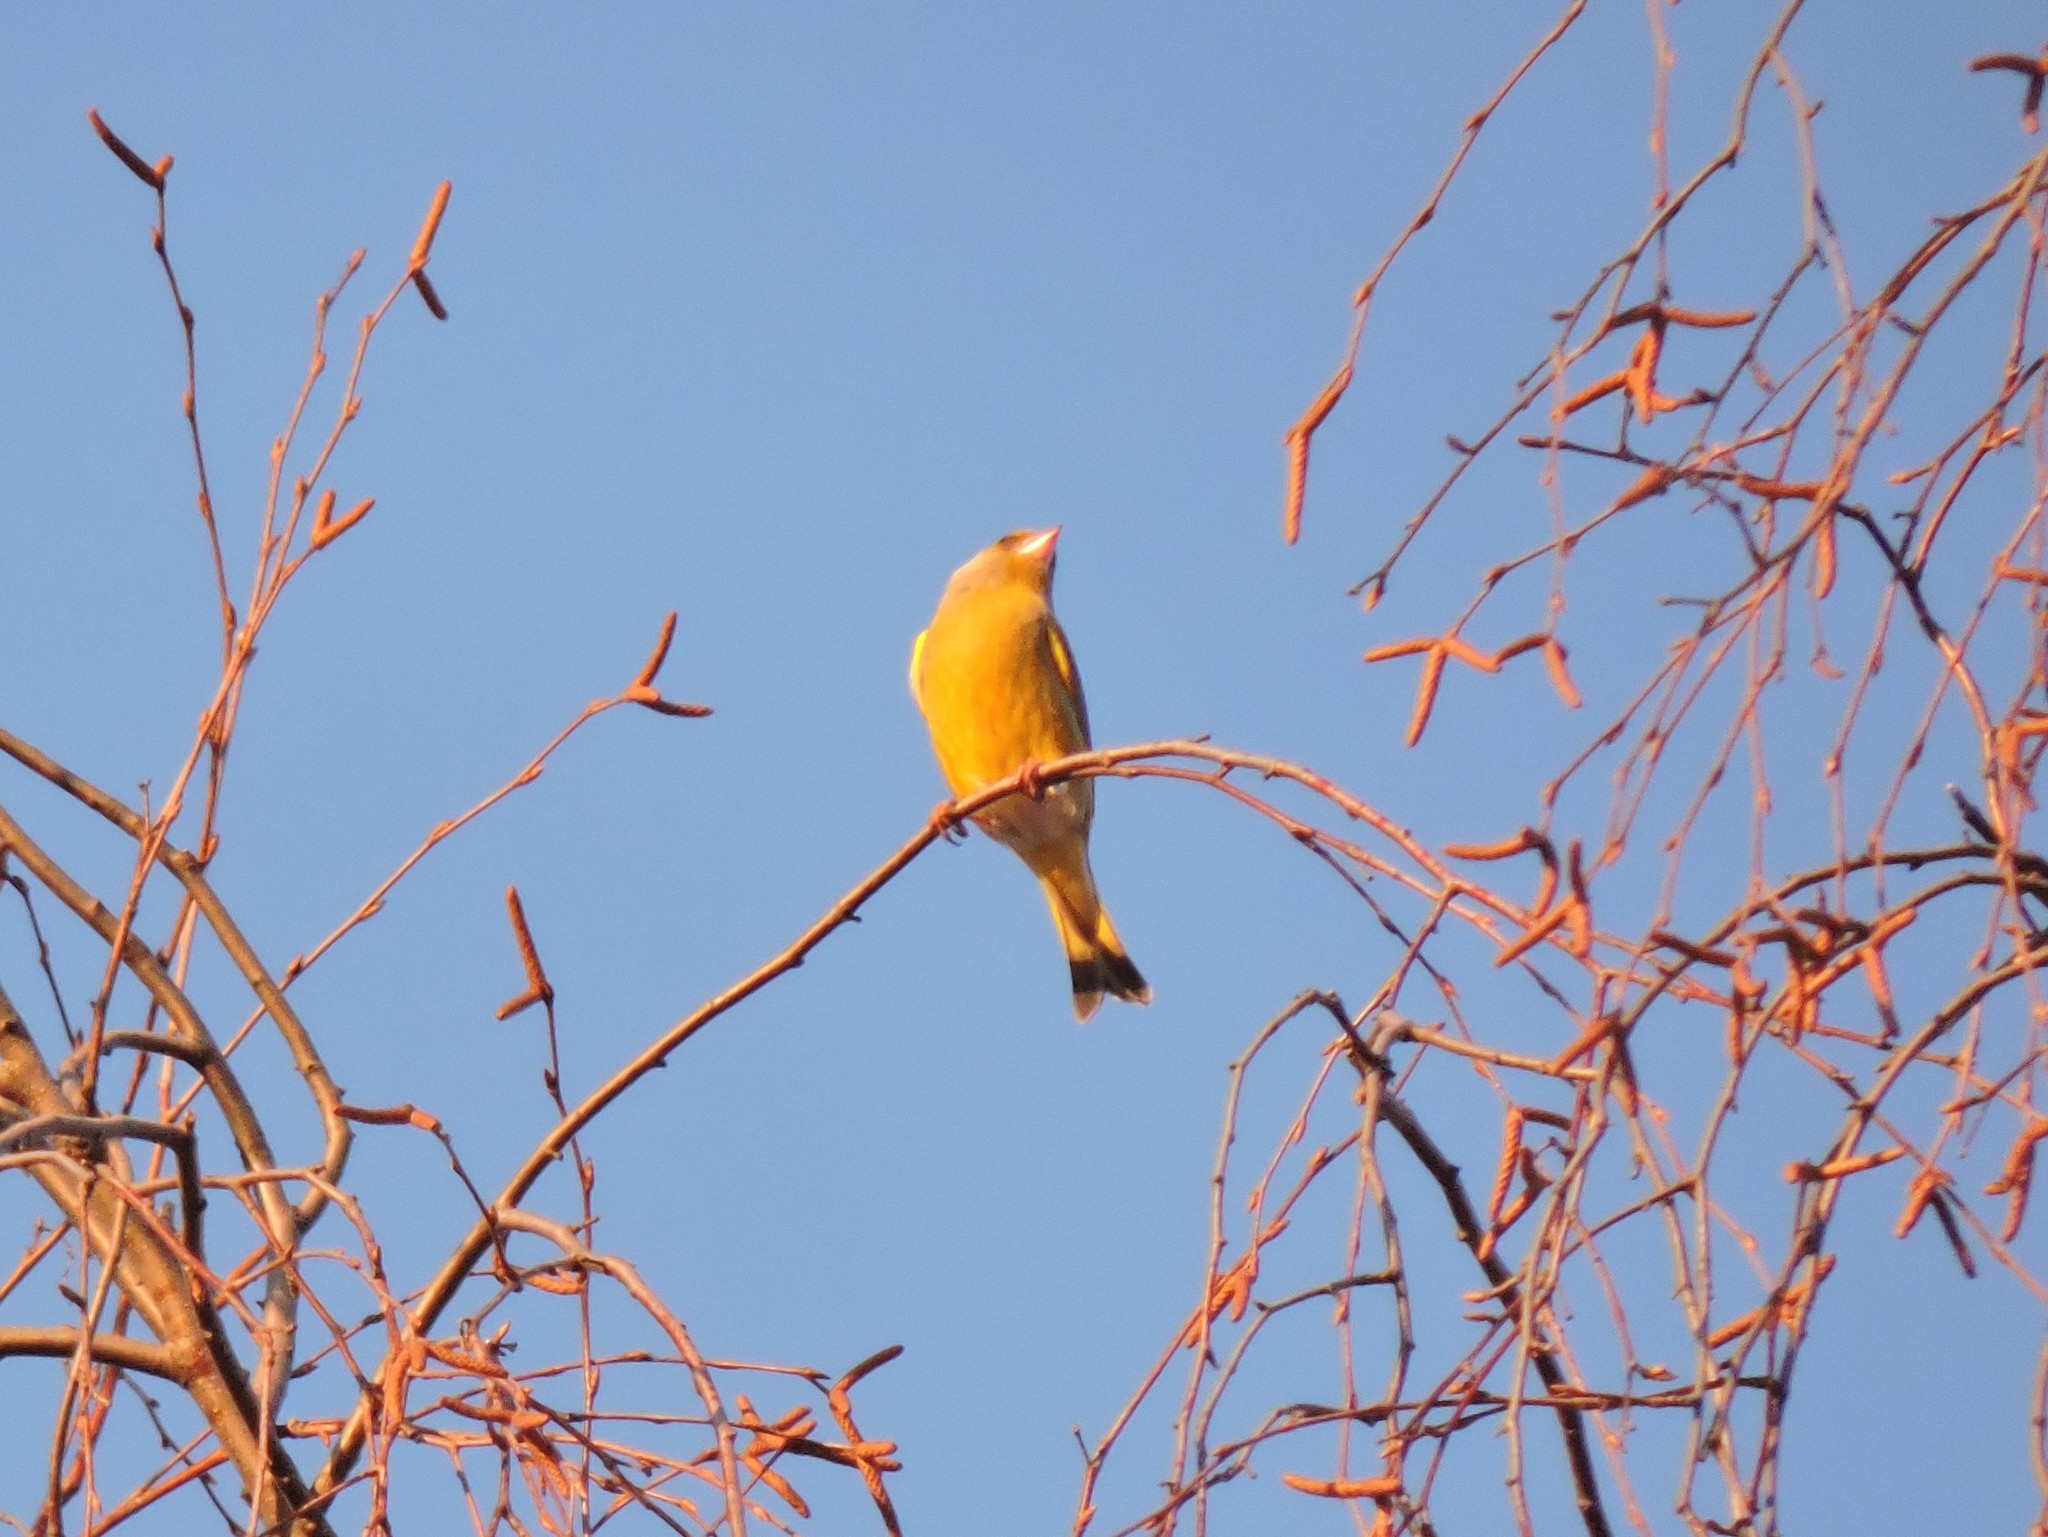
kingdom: Plantae
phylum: Tracheophyta
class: Liliopsida
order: Poales
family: Poaceae
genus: Chloris
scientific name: Chloris chloris
